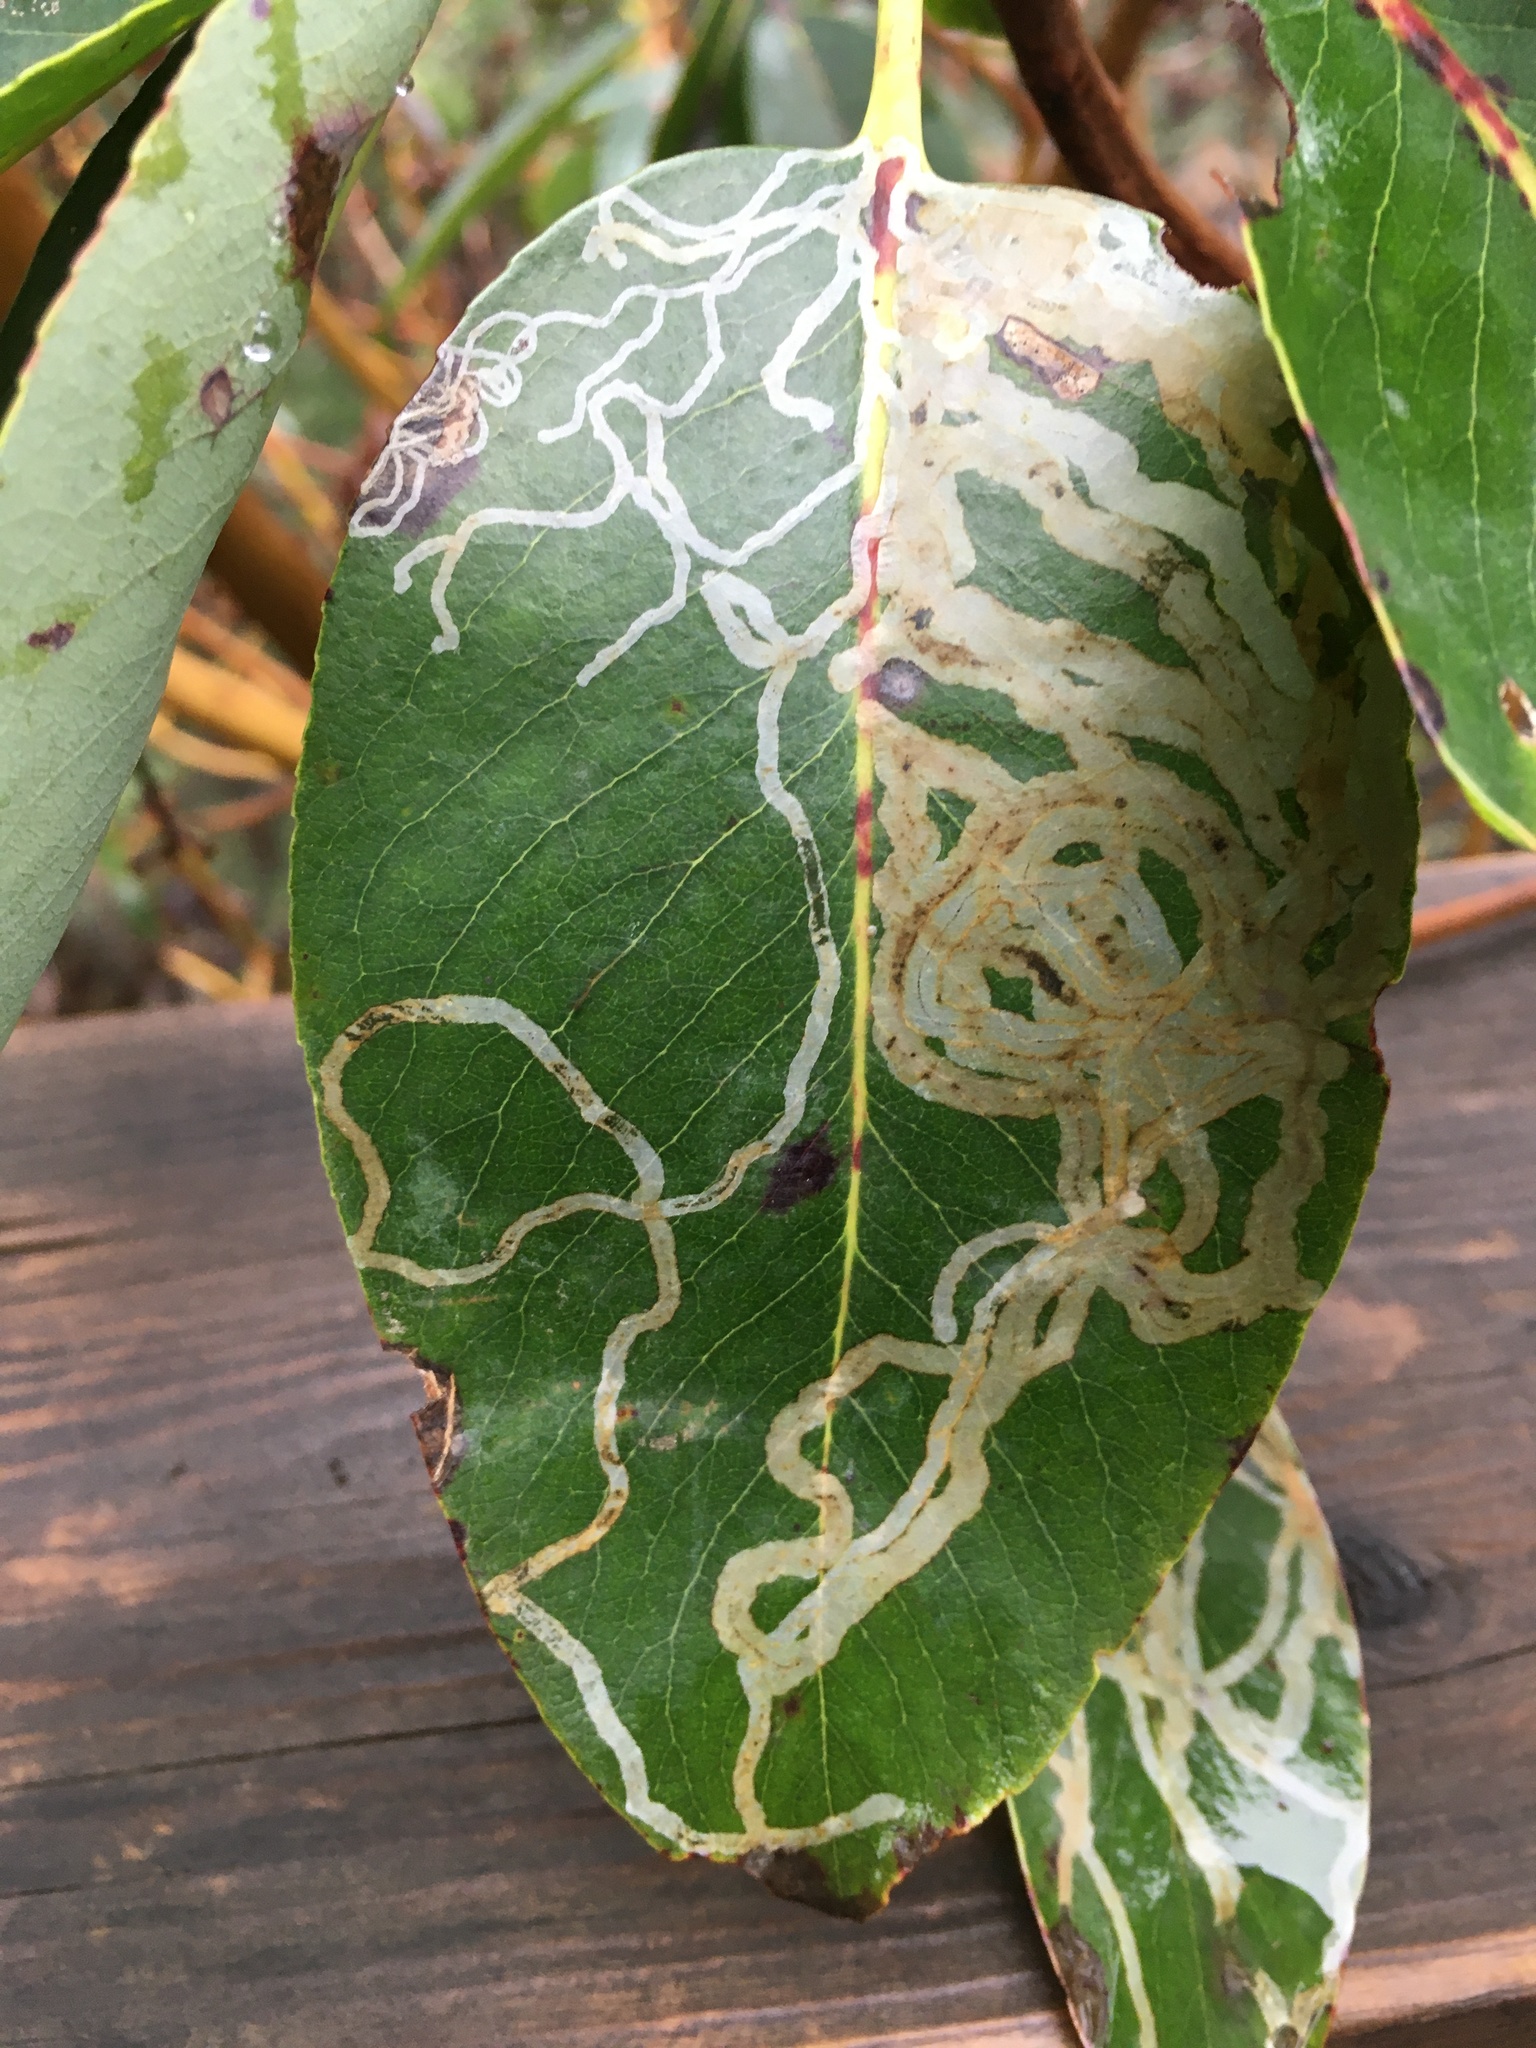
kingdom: Animalia
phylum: Arthropoda
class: Insecta
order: Lepidoptera
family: Gracillariidae
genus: Marmara
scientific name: Marmara arbutiella
